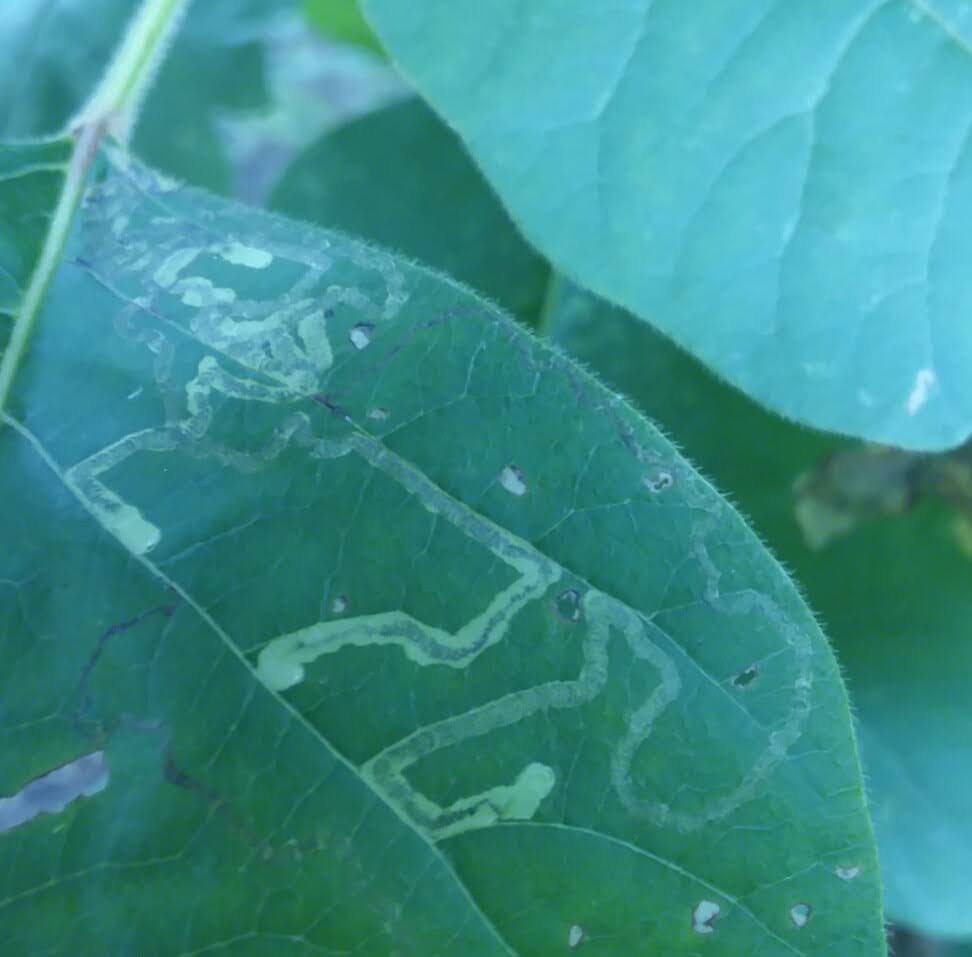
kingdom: Animalia
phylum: Arthropoda
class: Insecta
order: Lepidoptera
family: Nepticulidae
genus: Stigmella
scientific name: Stigmella rhoifoliella
